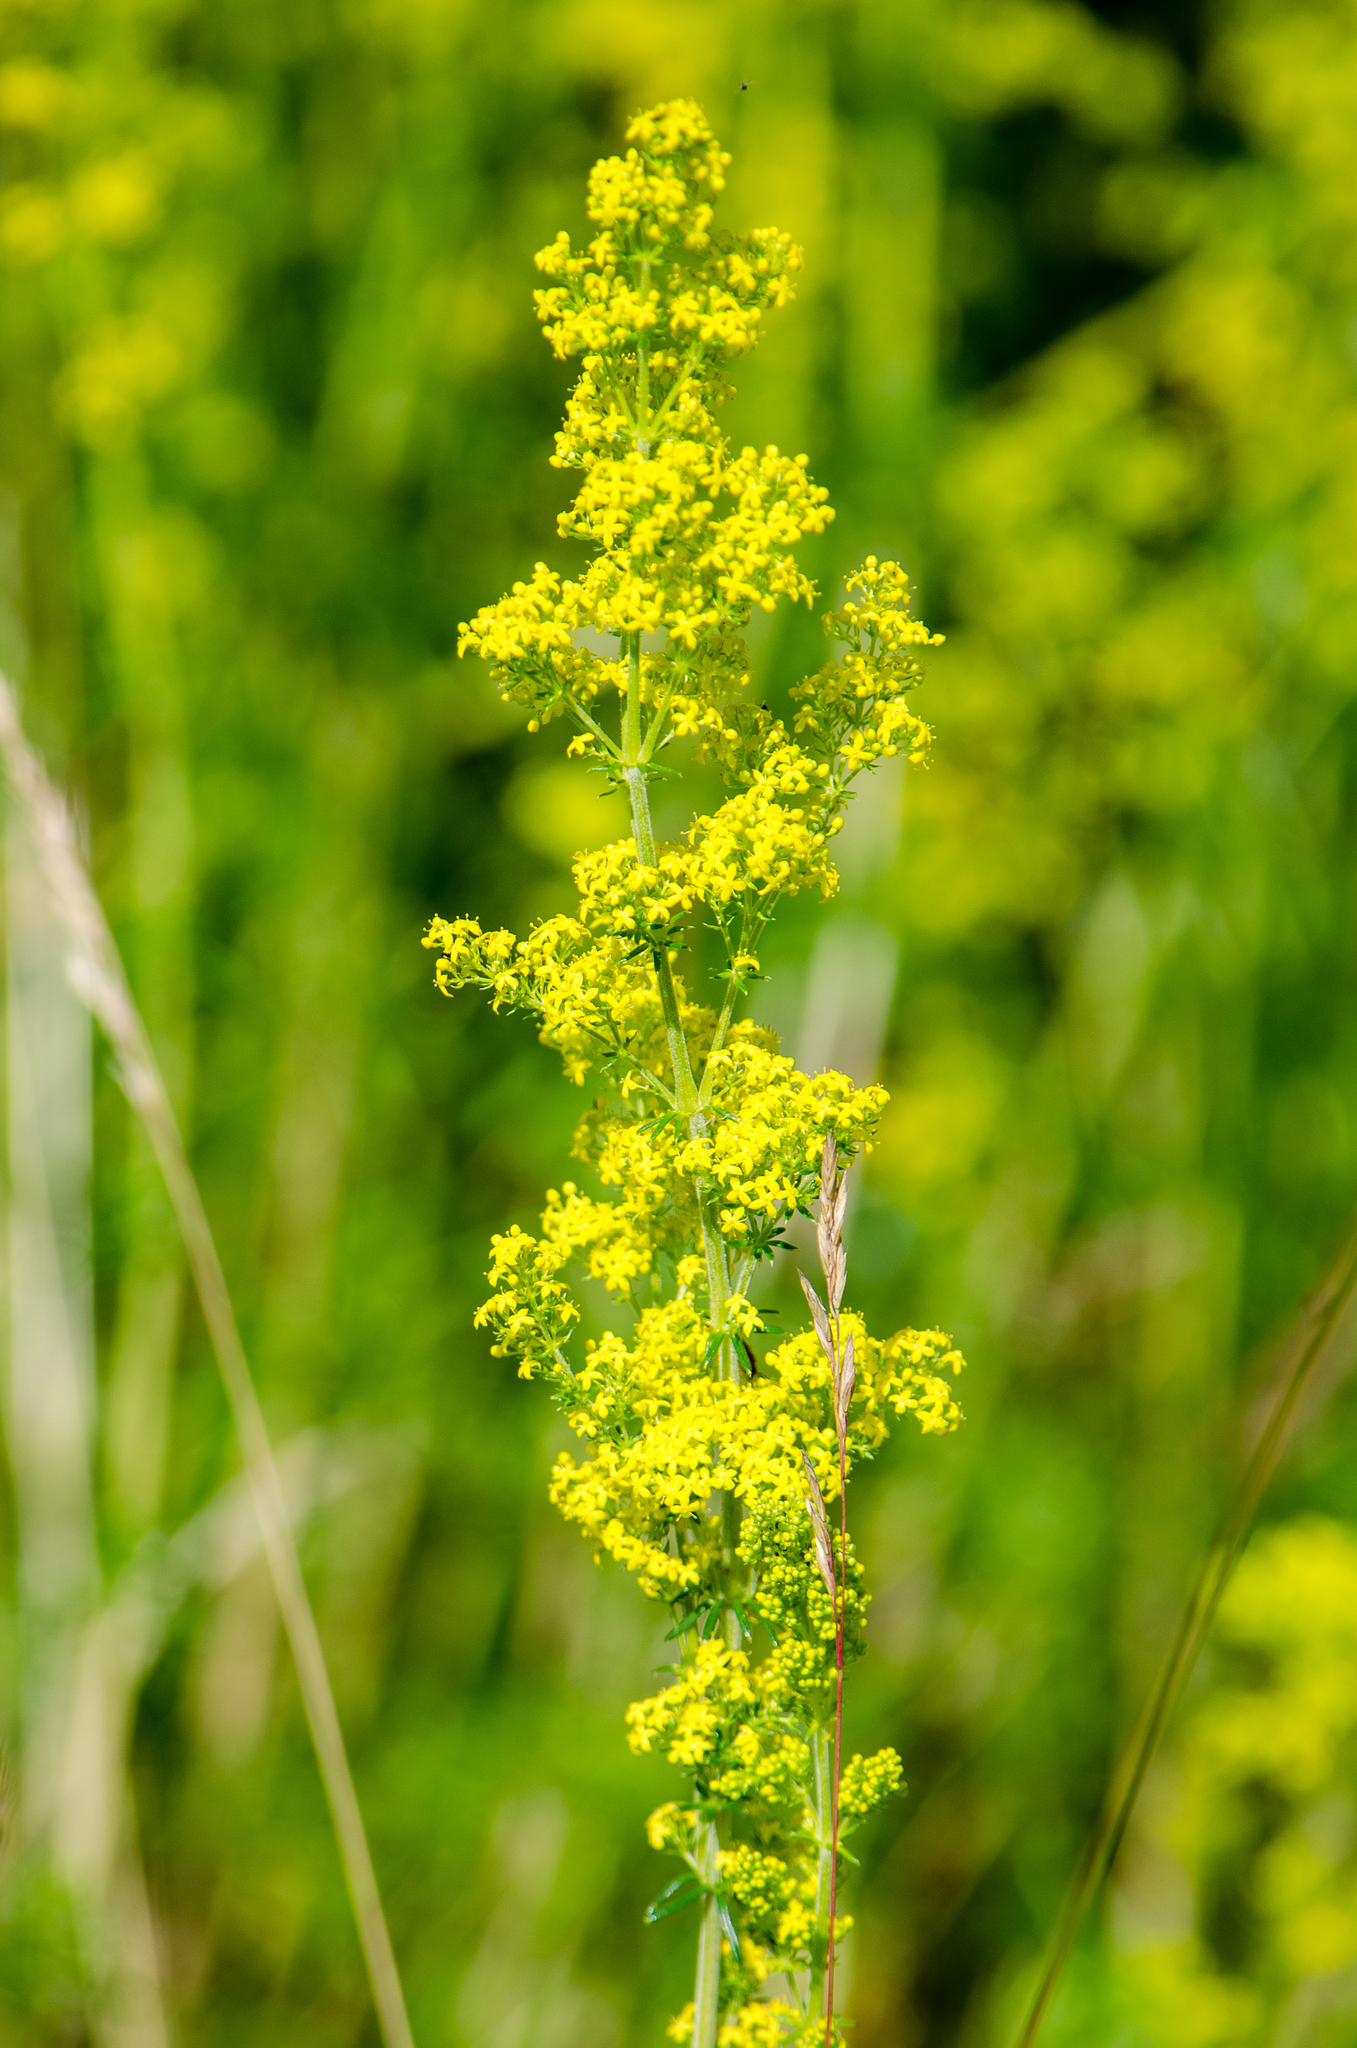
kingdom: Plantae
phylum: Tracheophyta
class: Magnoliopsida
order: Gentianales
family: Rubiaceae
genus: Galium
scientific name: Galium verum
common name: Lady's bedstraw
